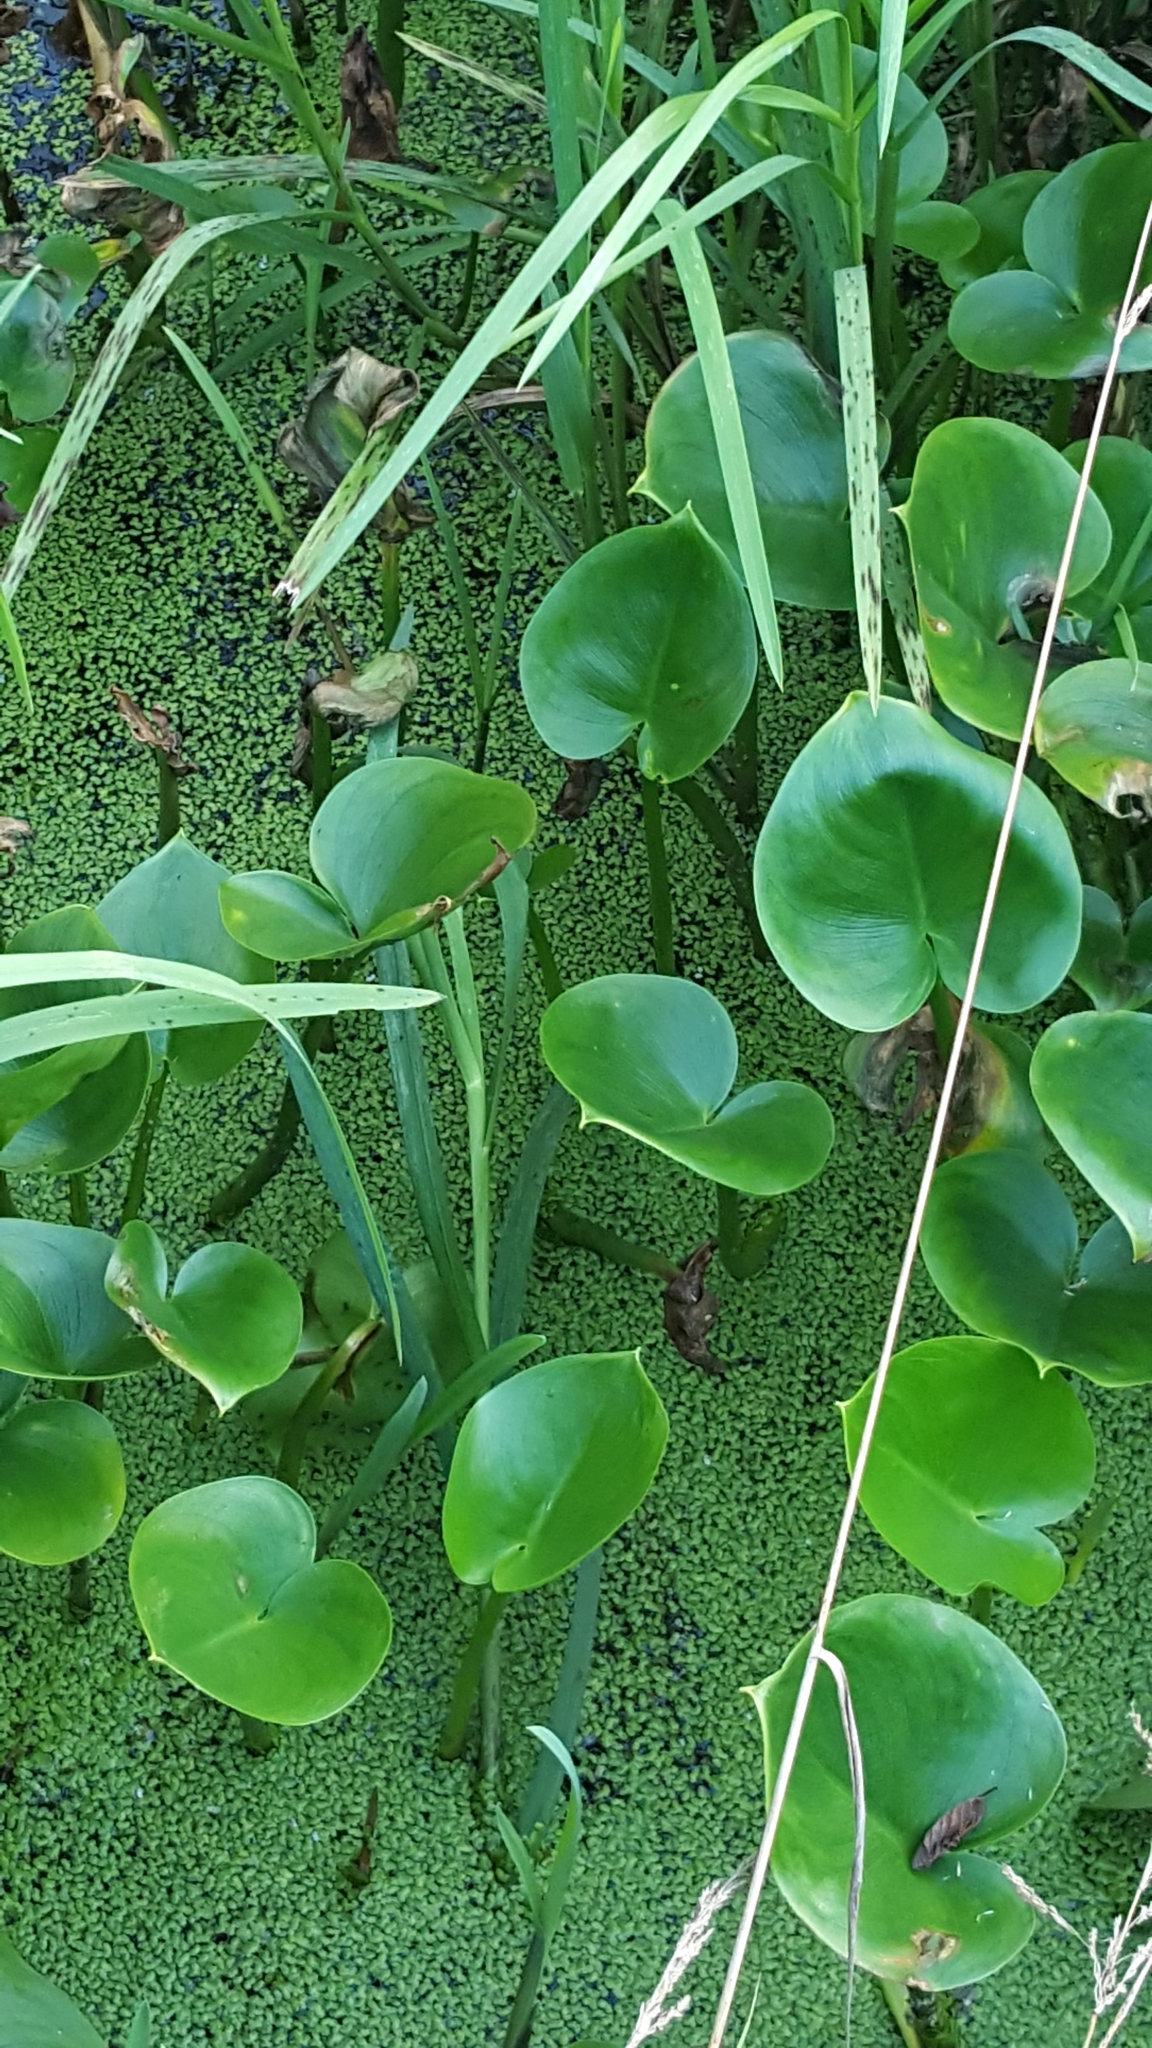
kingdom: Plantae
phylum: Tracheophyta
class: Liliopsida
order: Alismatales
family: Araceae
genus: Calla
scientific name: Calla palustris
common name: Bog arum
